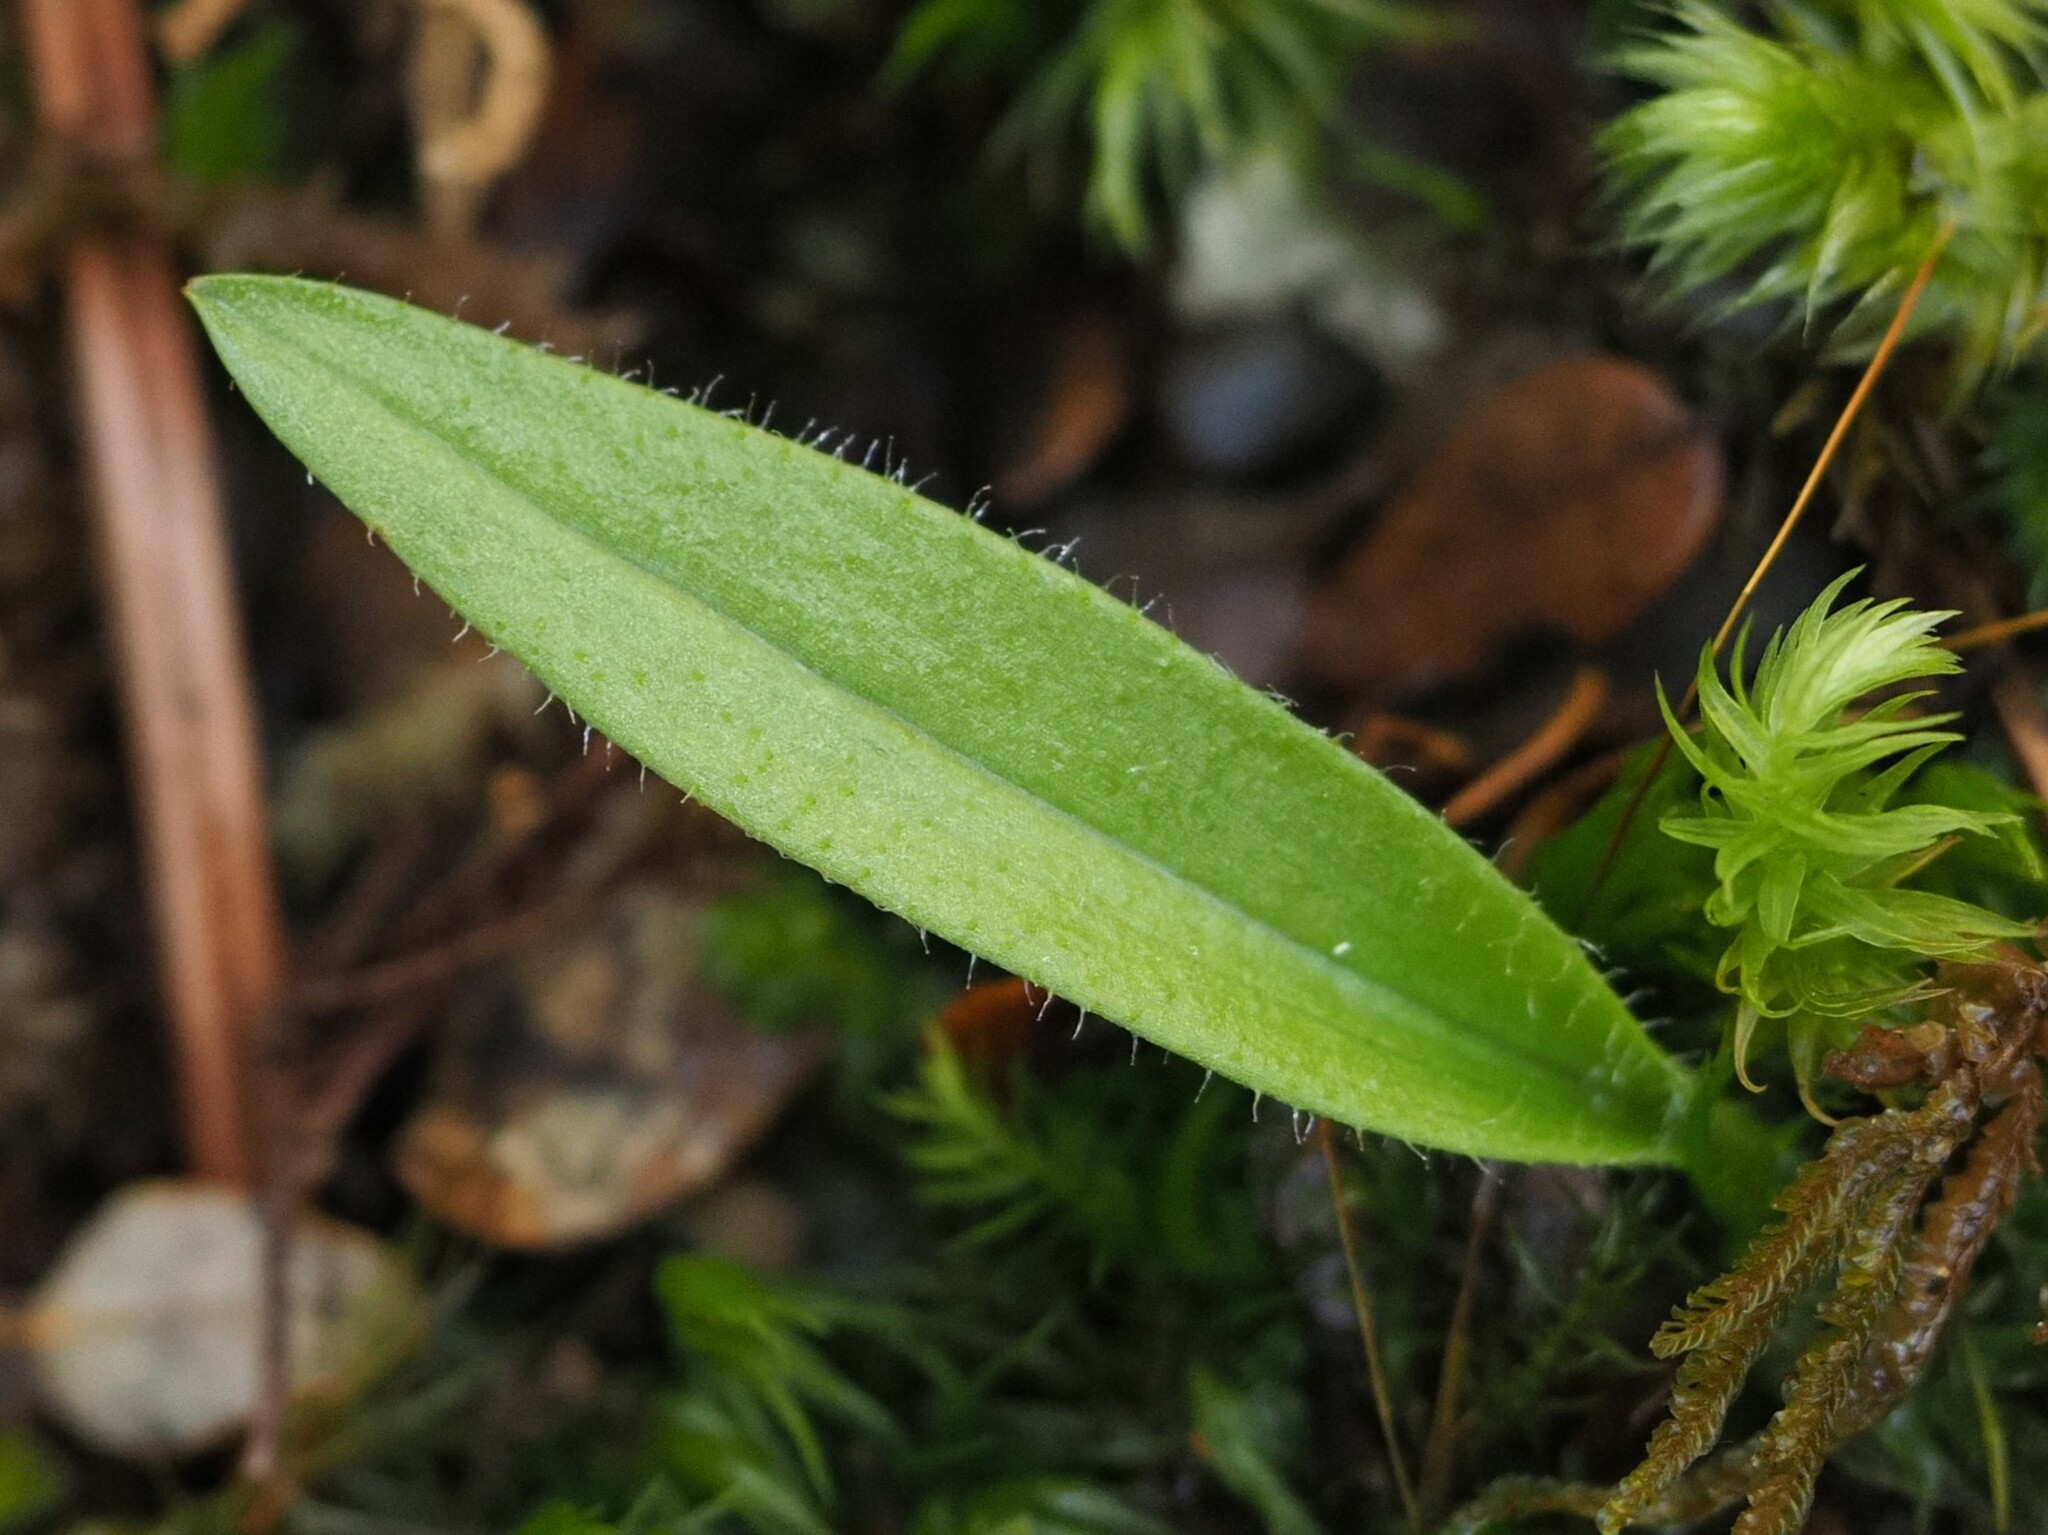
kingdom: Plantae
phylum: Tracheophyta
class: Liliopsida
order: Asparagales
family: Orchidaceae
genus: Aporostylis
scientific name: Aporostylis bifolia
